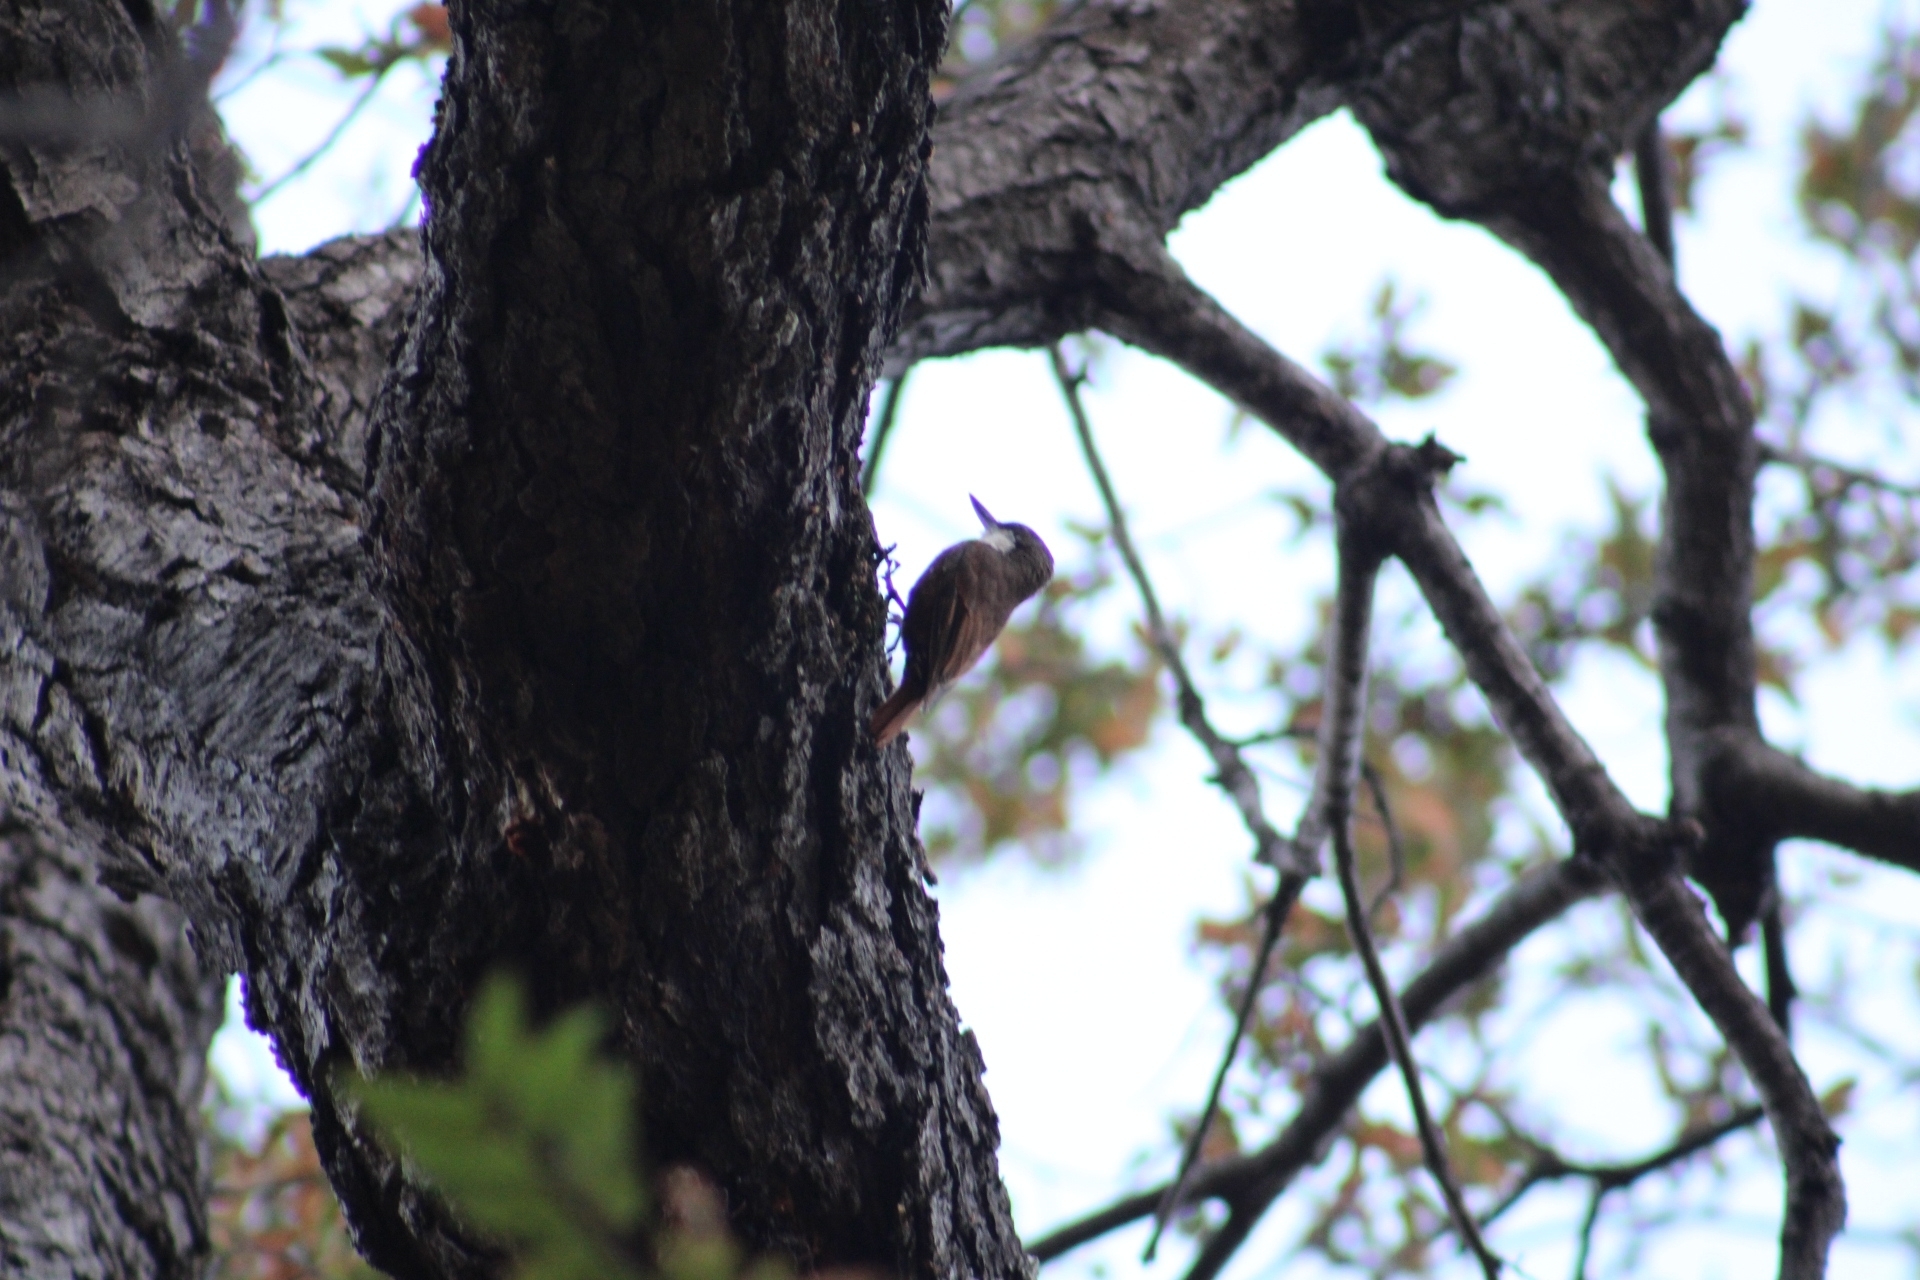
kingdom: Animalia
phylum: Chordata
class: Aves
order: Passeriformes
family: Furnariidae
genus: Pygarrhichas
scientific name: Pygarrhichas albogularis
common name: White-throated treerunner
